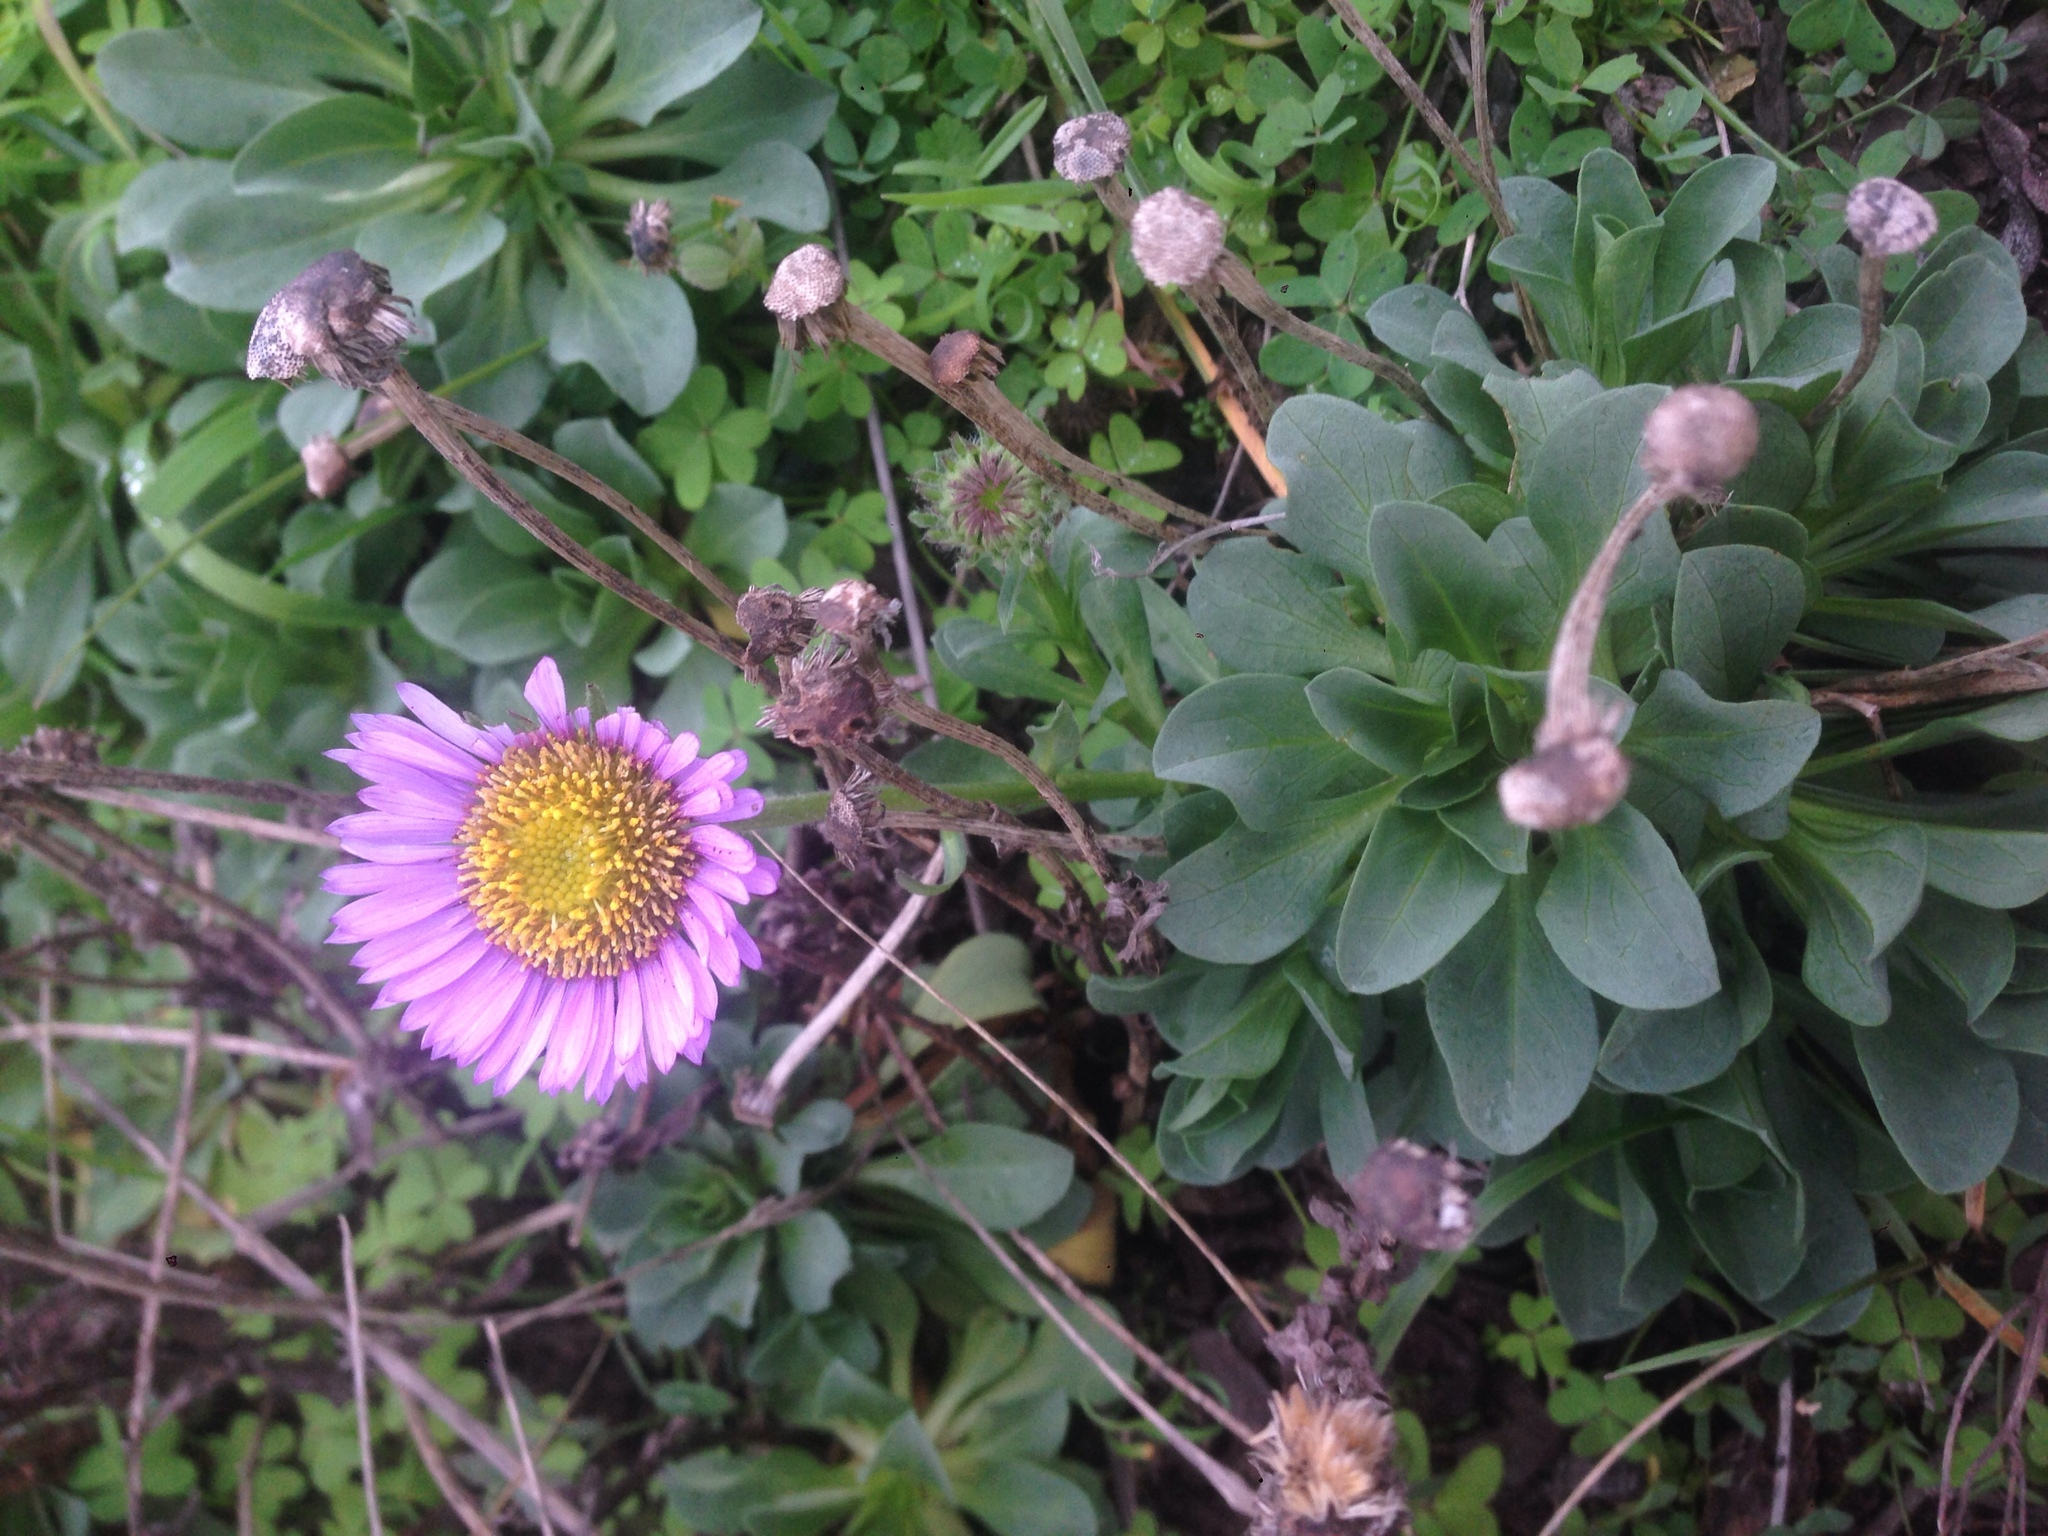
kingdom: Plantae
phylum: Tracheophyta
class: Magnoliopsida
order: Asterales
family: Asteraceae
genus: Erigeron
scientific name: Erigeron glaucus
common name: Seaside daisy
